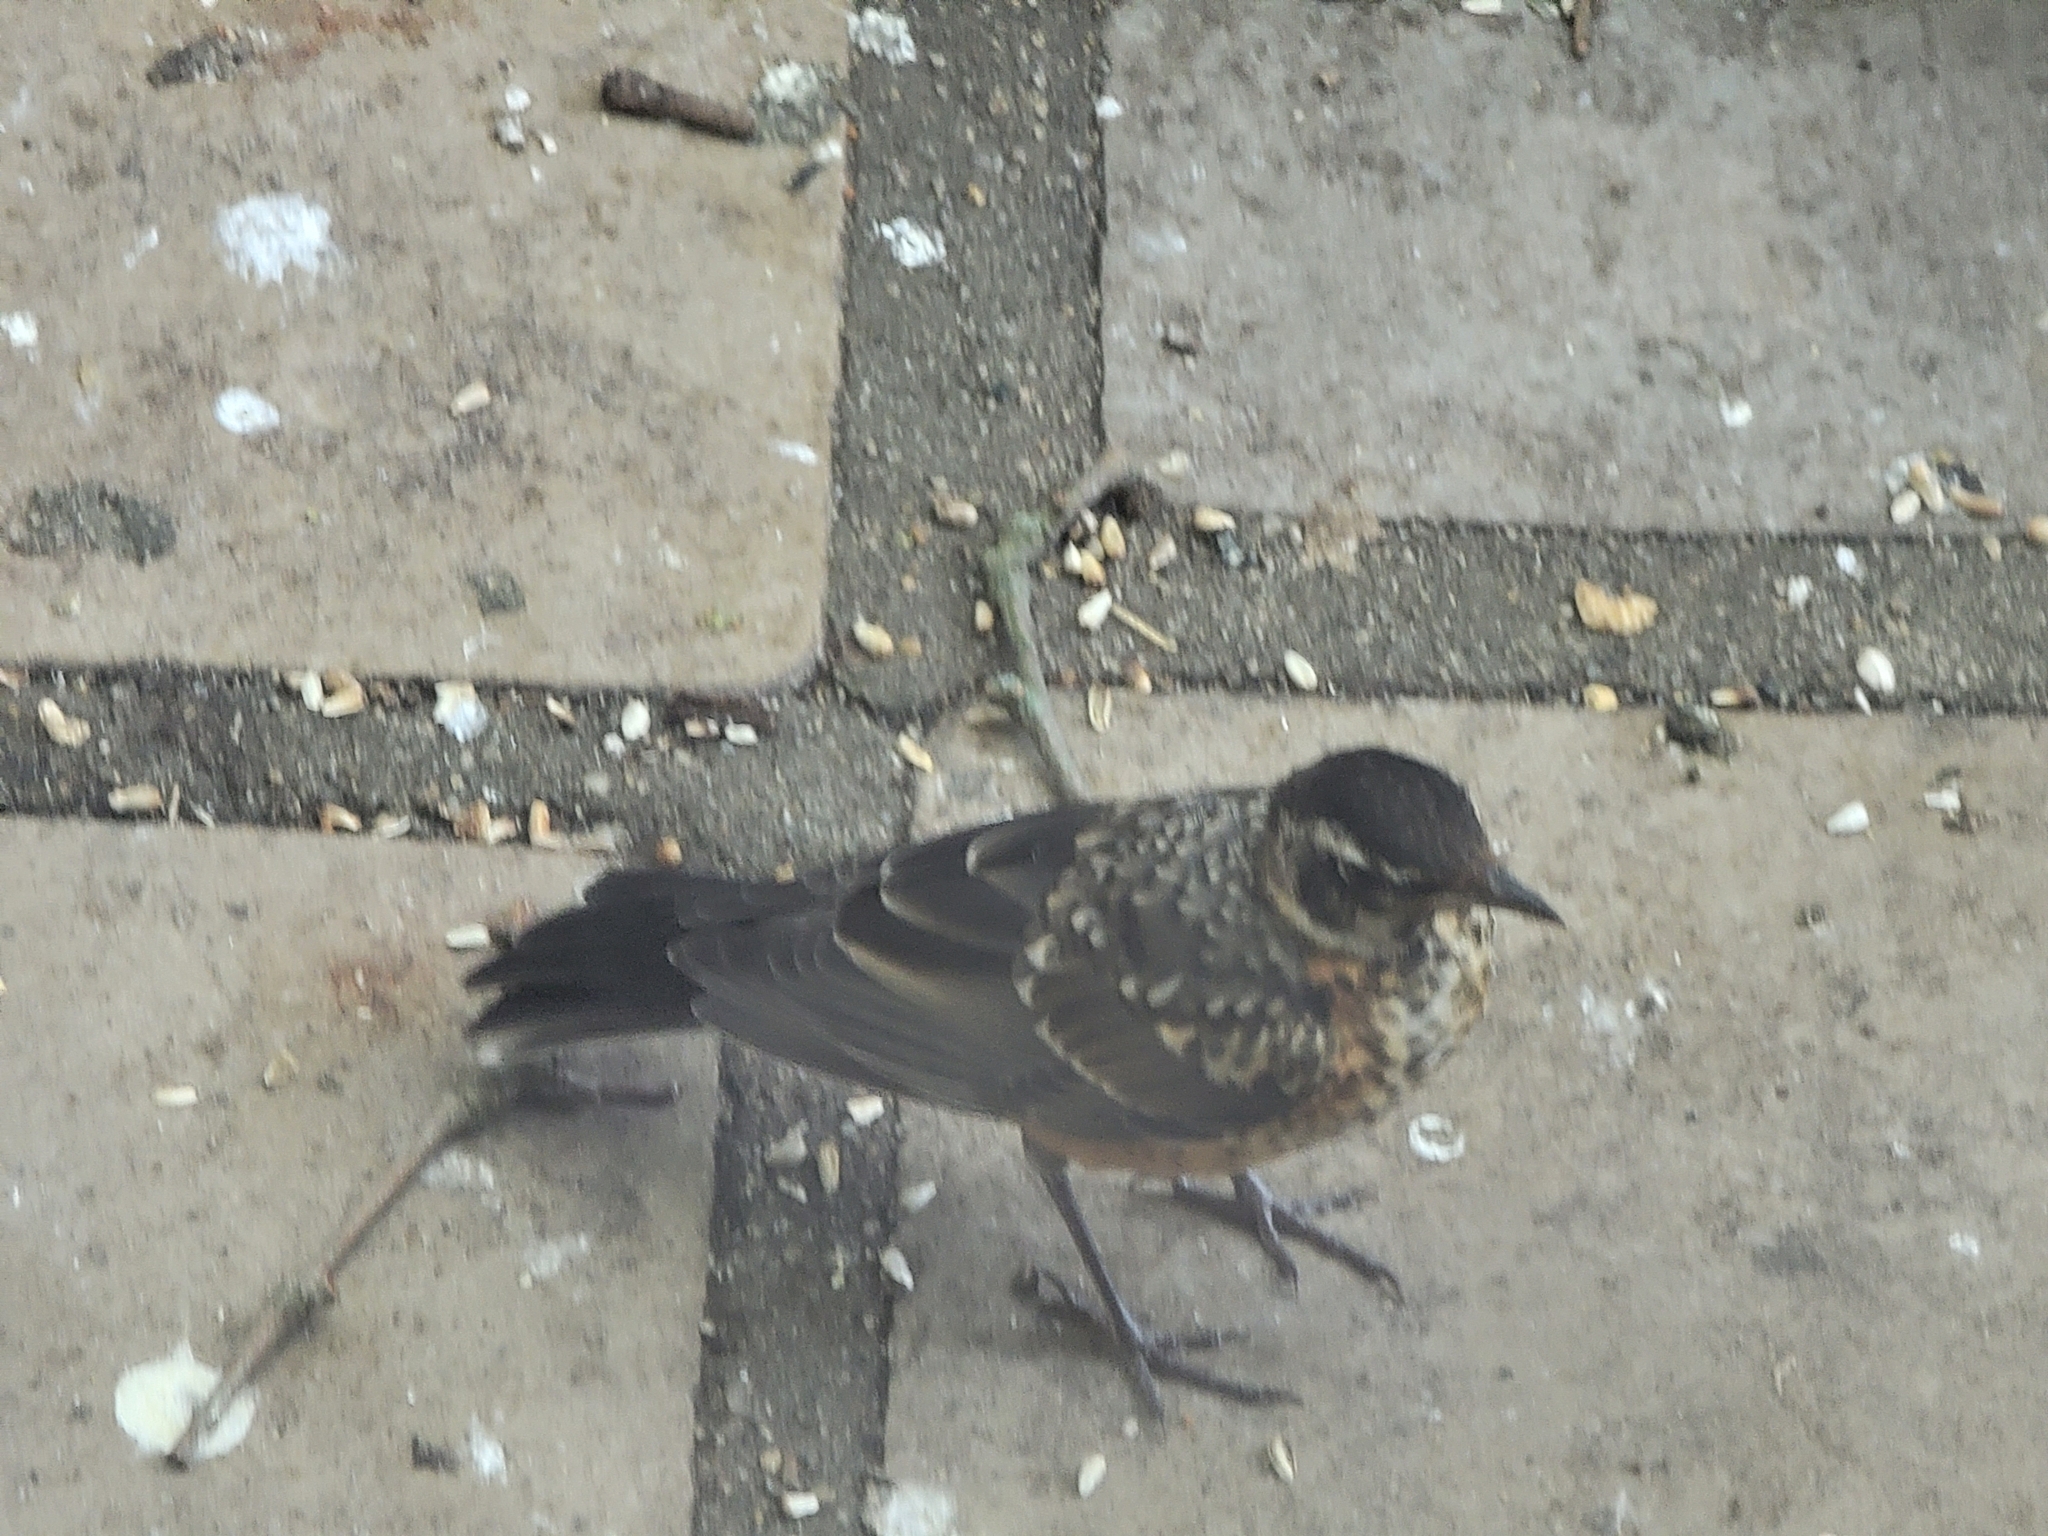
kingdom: Animalia
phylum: Chordata
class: Aves
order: Passeriformes
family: Turdidae
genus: Turdus
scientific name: Turdus migratorius
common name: American robin
